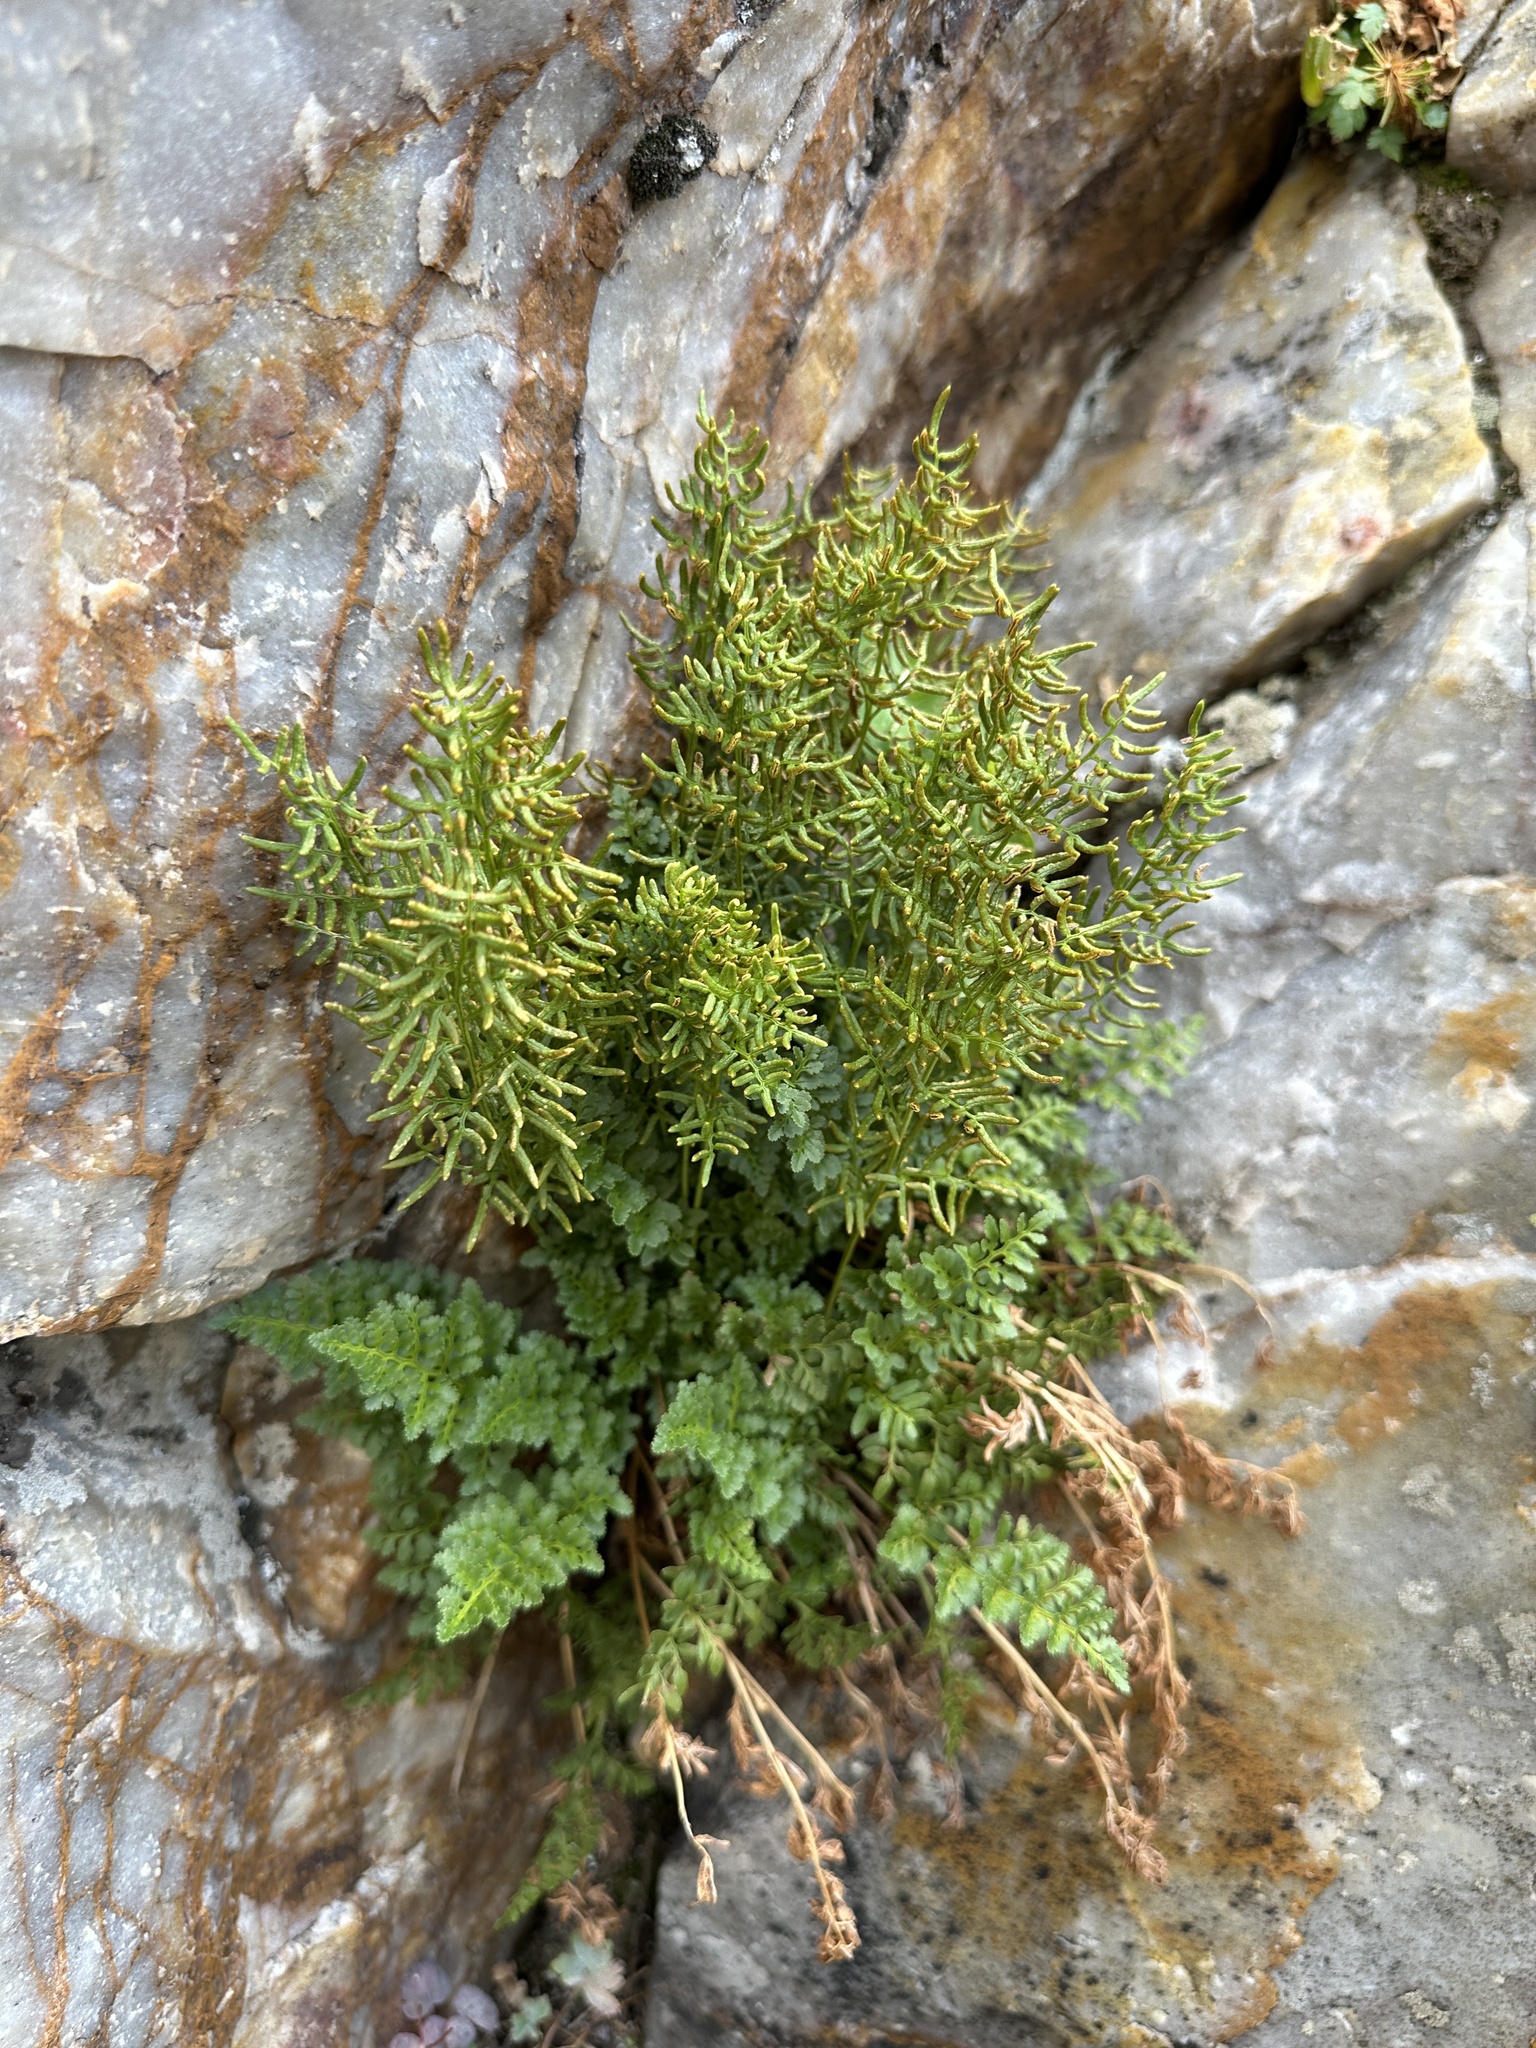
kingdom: Plantae
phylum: Tracheophyta
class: Polypodiopsida
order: Polypodiales
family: Pteridaceae
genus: Cryptogramma
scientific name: Cryptogramma acrostichoides
